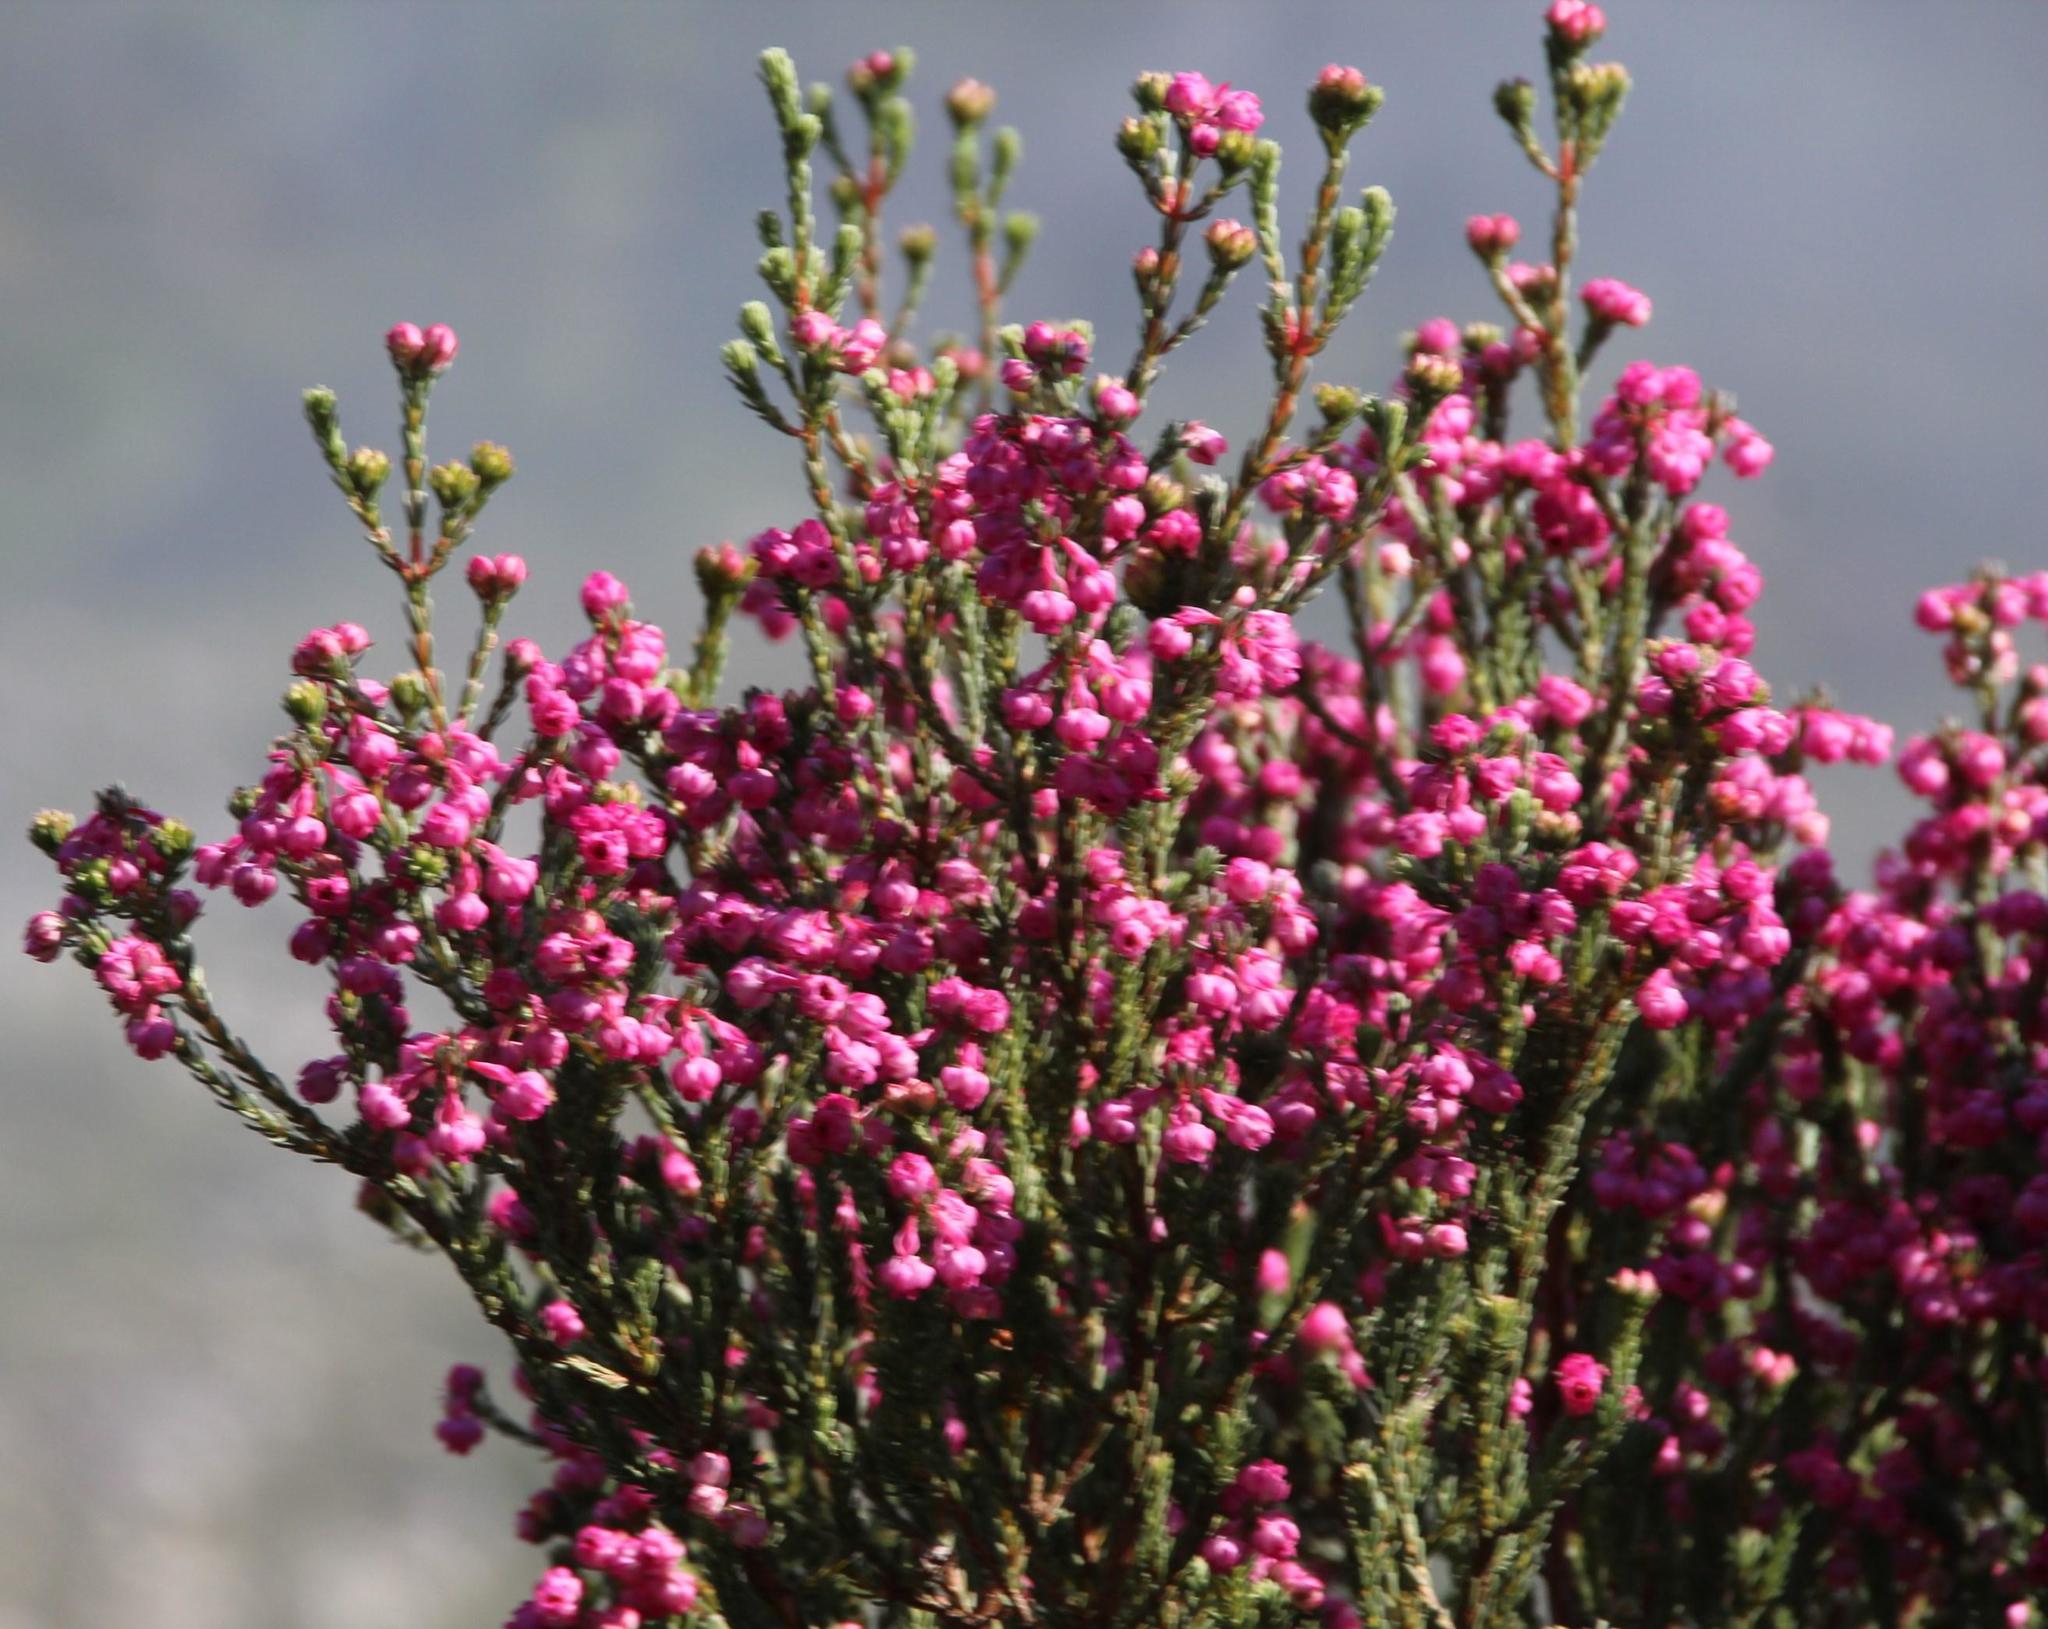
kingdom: Plantae
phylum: Tracheophyta
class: Magnoliopsida
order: Ericales
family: Ericaceae
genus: Erica
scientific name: Erica baccans
